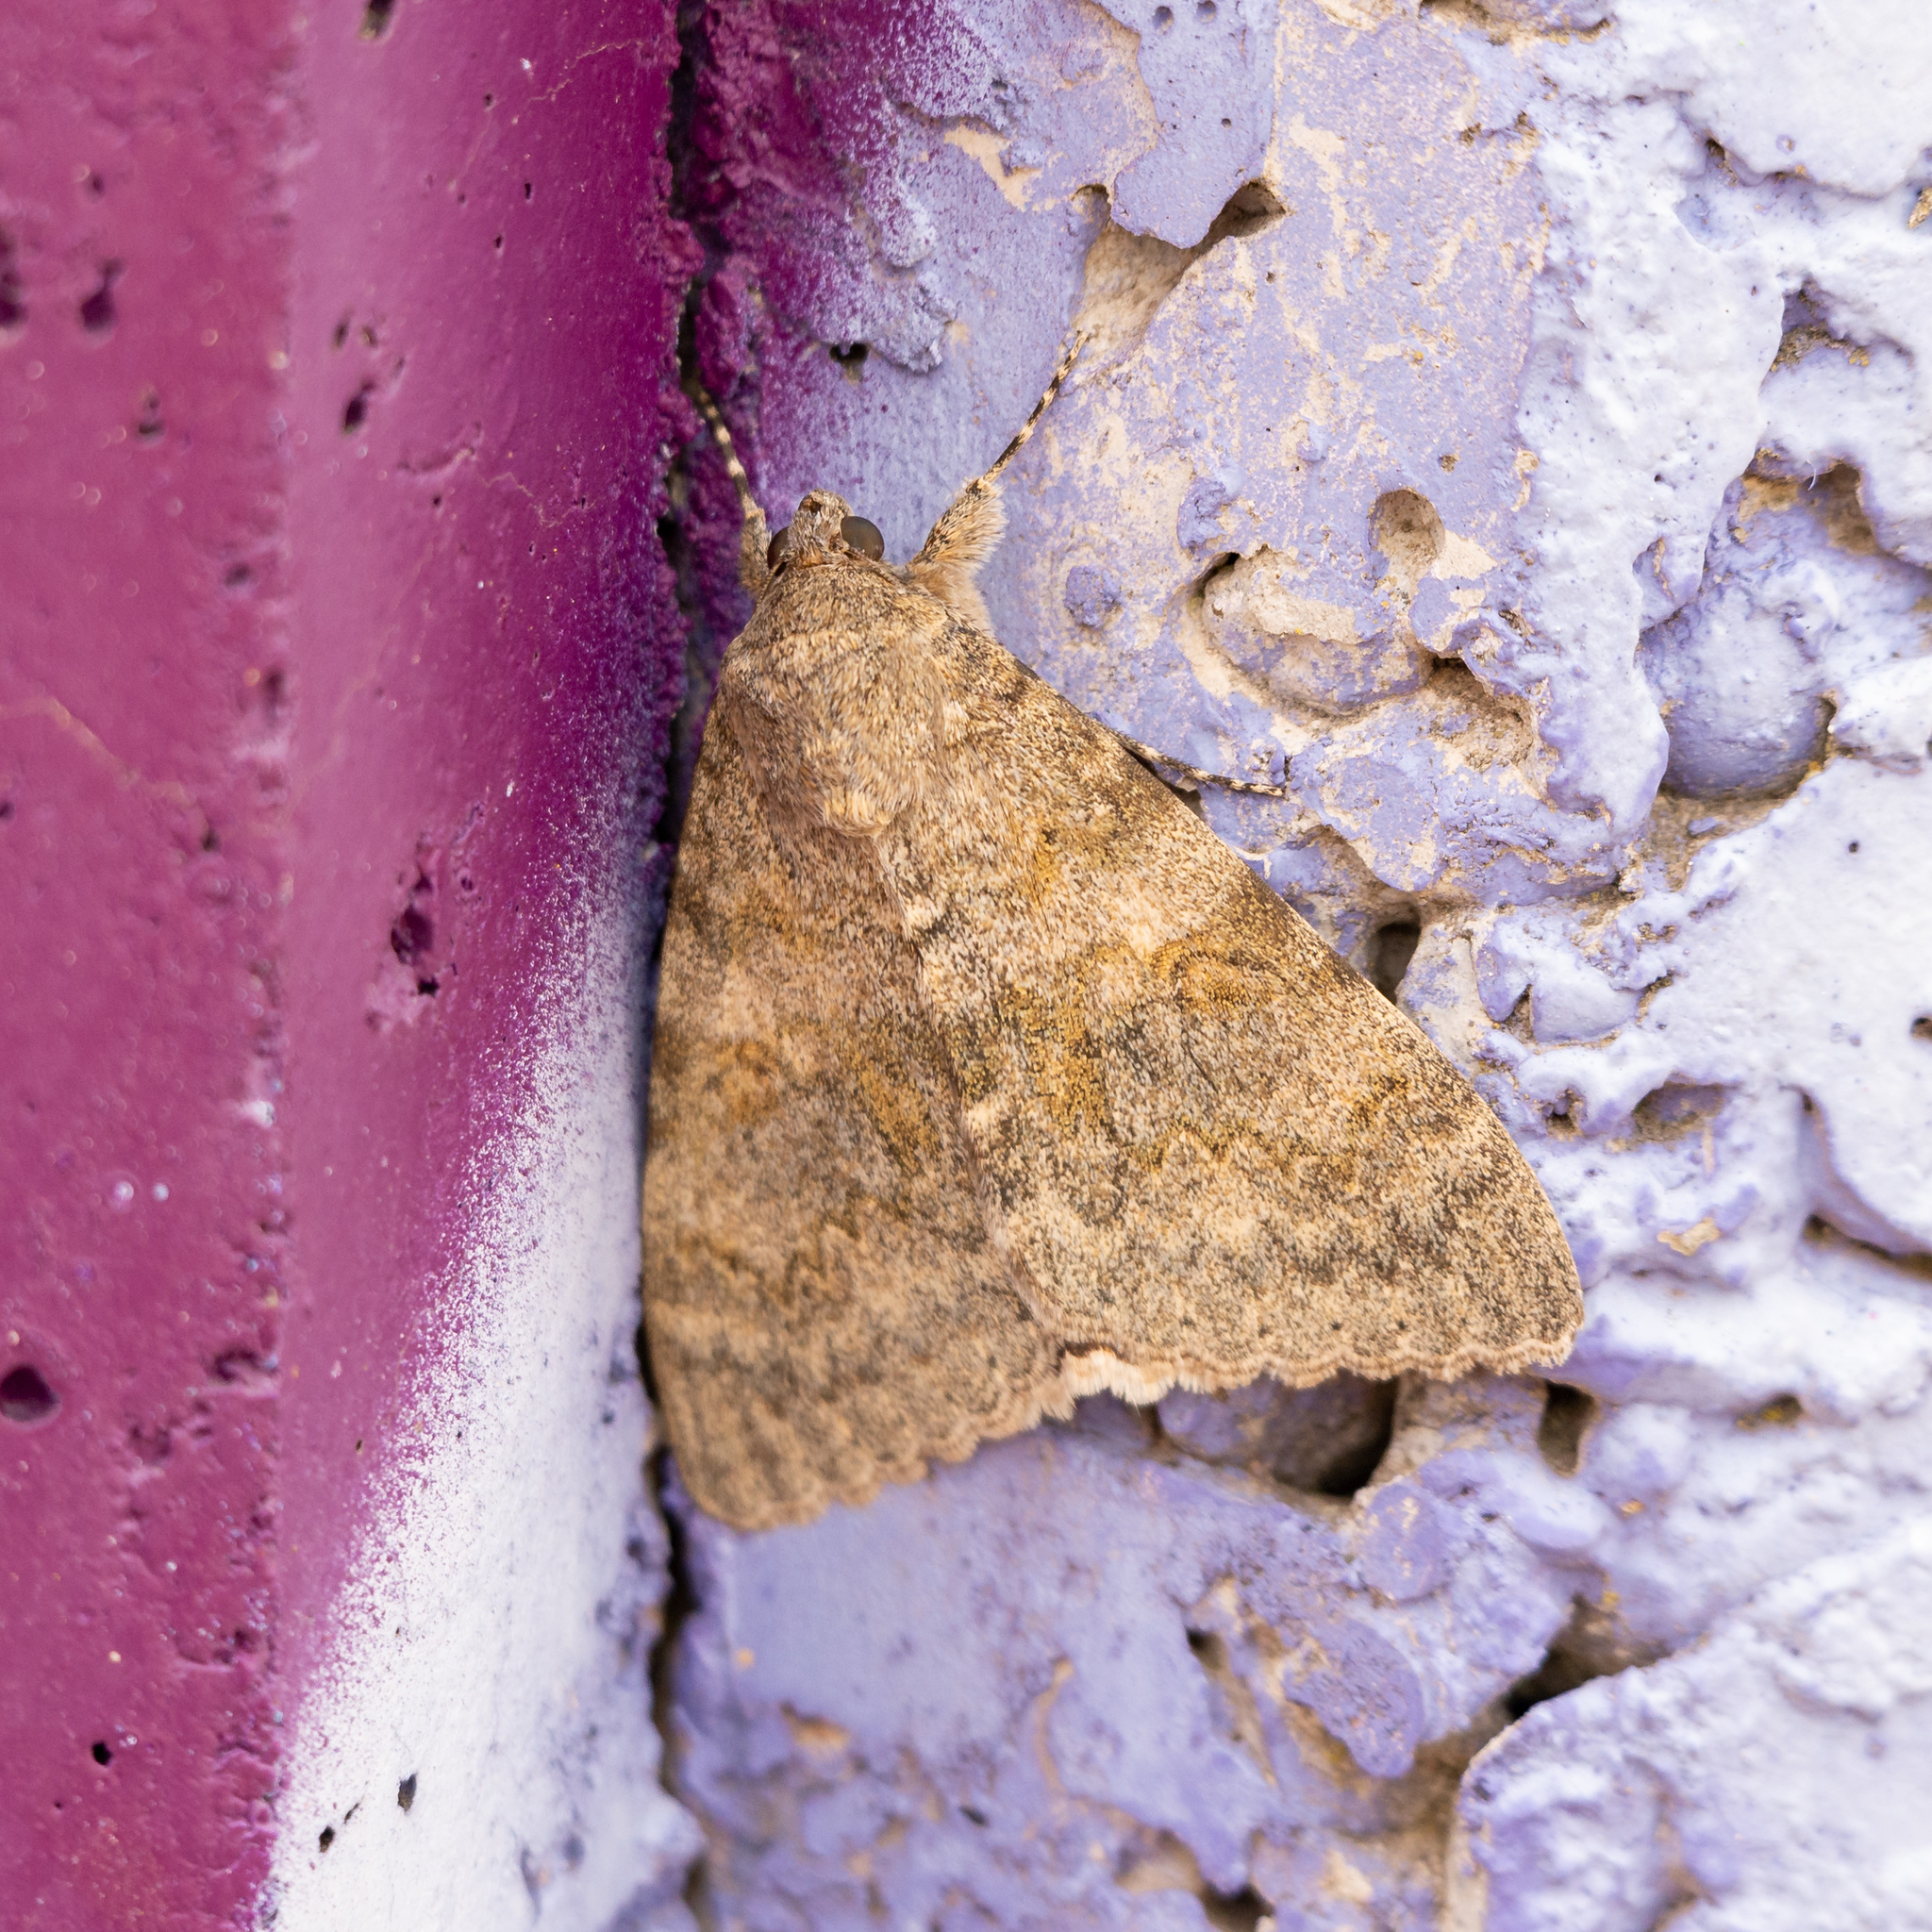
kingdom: Animalia
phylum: Arthropoda
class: Insecta
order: Lepidoptera
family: Erebidae
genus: Catocala
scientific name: Catocala elocata
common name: French red underwing
